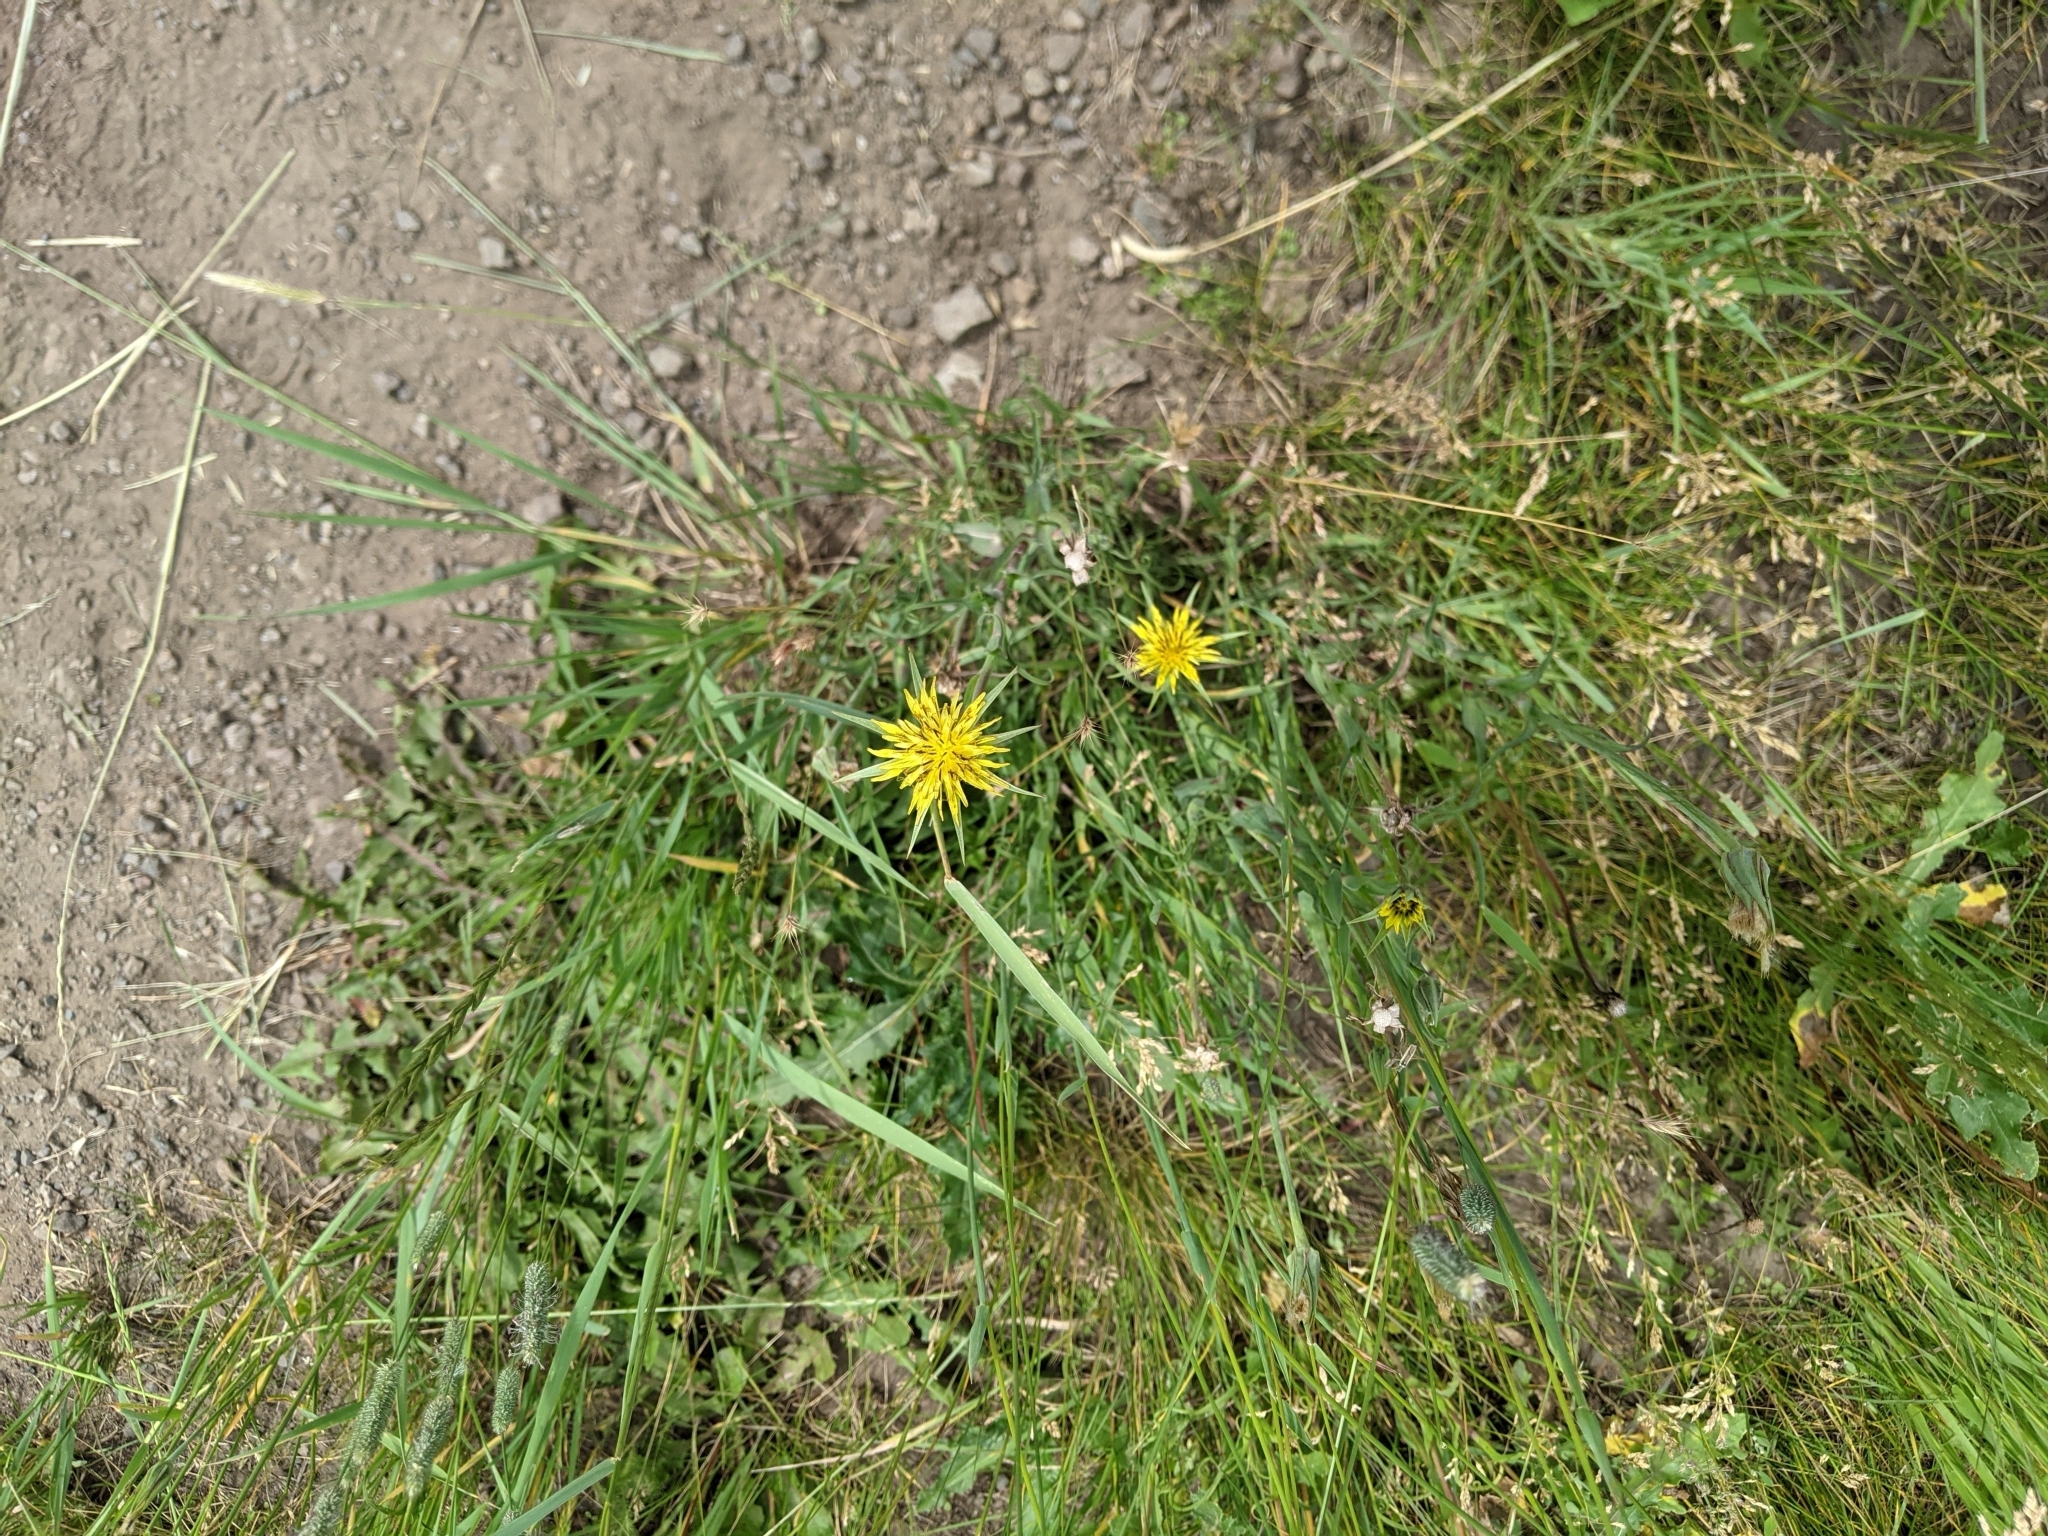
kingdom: Plantae
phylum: Tracheophyta
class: Magnoliopsida
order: Asterales
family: Asteraceae
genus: Tragopogon
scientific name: Tragopogon dubius
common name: Yellow salsify
